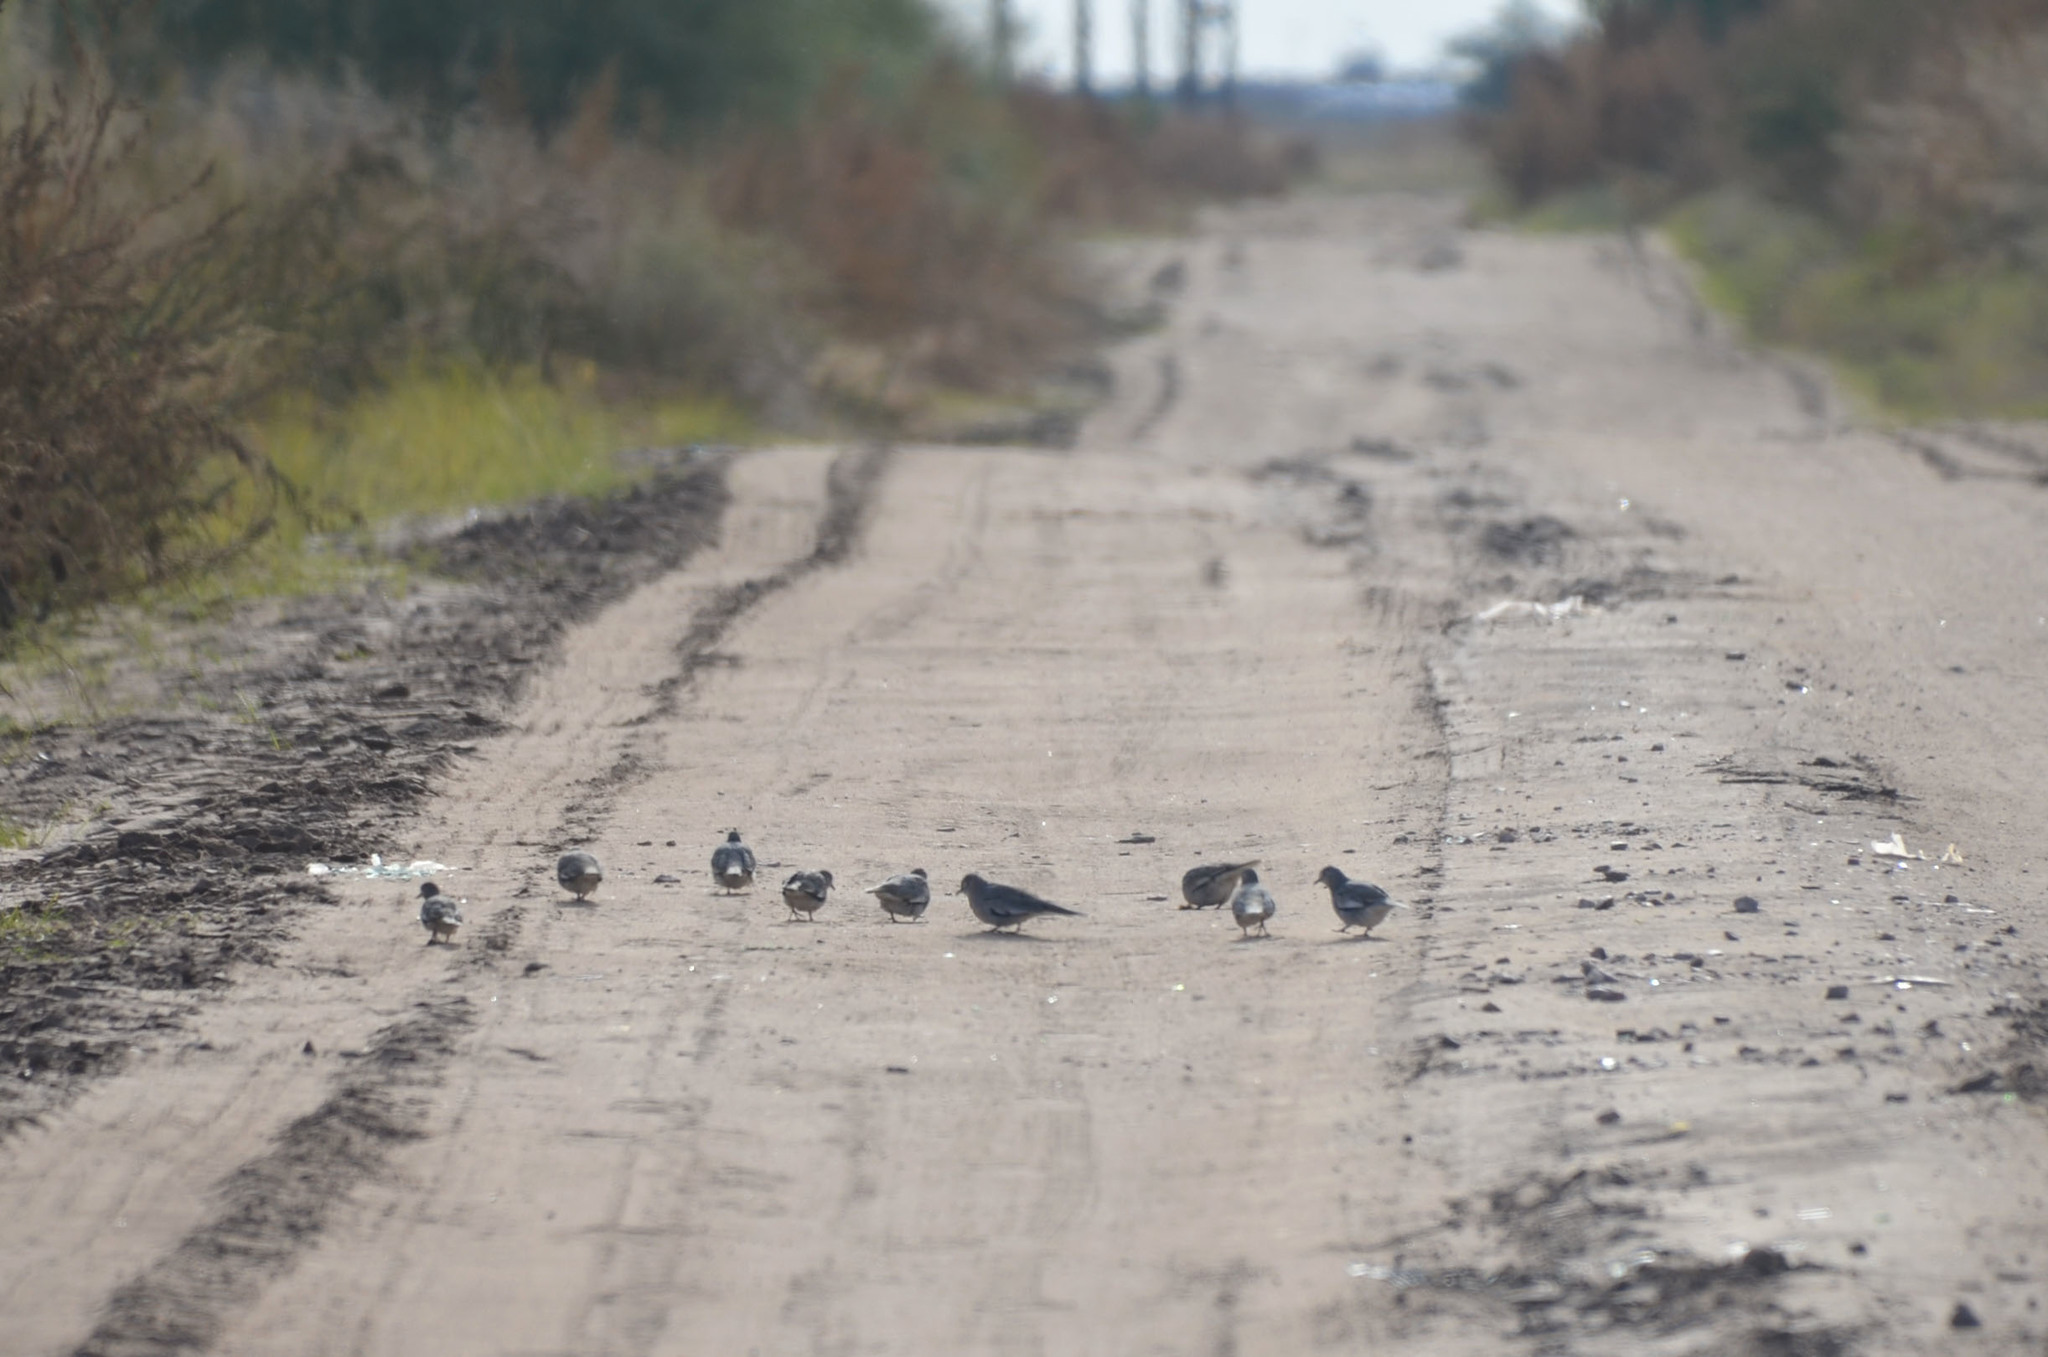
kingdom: Animalia
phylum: Chordata
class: Aves
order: Columbiformes
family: Columbidae
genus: Columbina
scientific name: Columbina picui
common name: Picui ground dove
